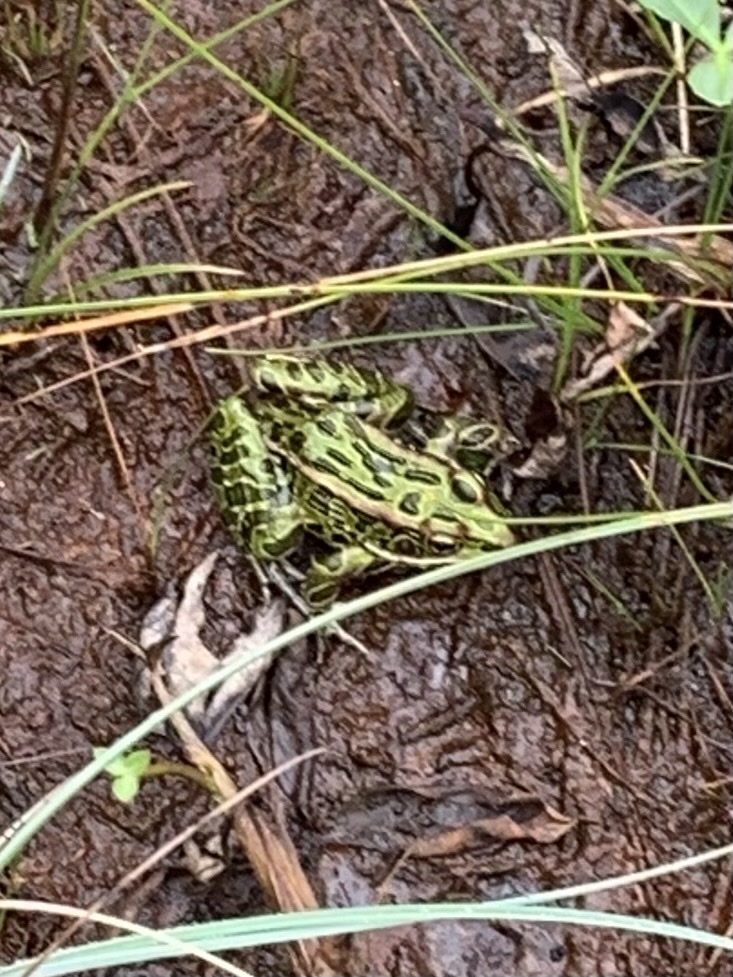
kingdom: Animalia
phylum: Chordata
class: Amphibia
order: Anura
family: Ranidae
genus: Lithobates
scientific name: Lithobates pipiens
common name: Northern leopard frog
